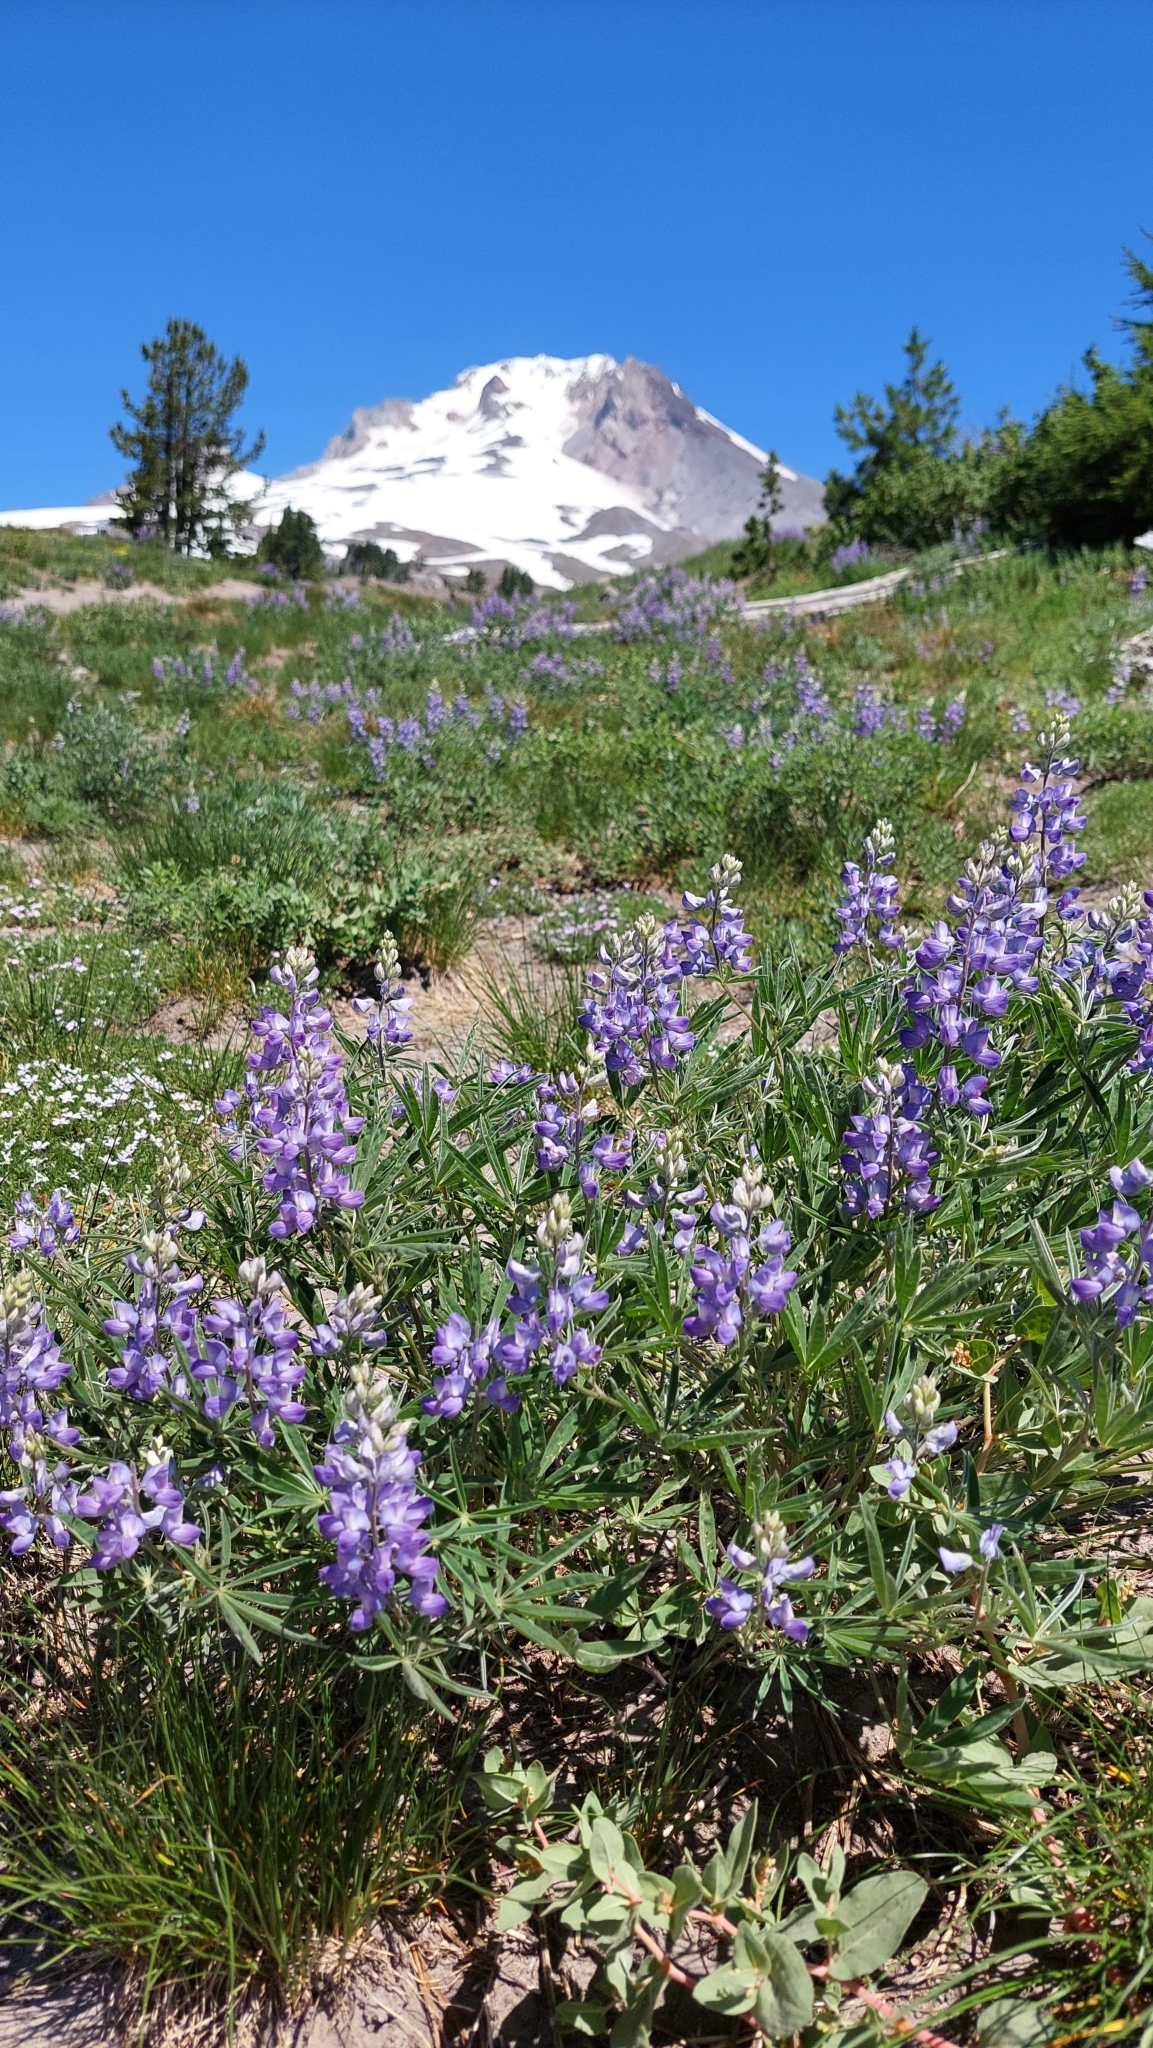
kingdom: Plantae
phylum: Tracheophyta
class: Magnoliopsida
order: Fabales
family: Fabaceae
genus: Lupinus
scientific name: Lupinus lepidus
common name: Prairie lupine
